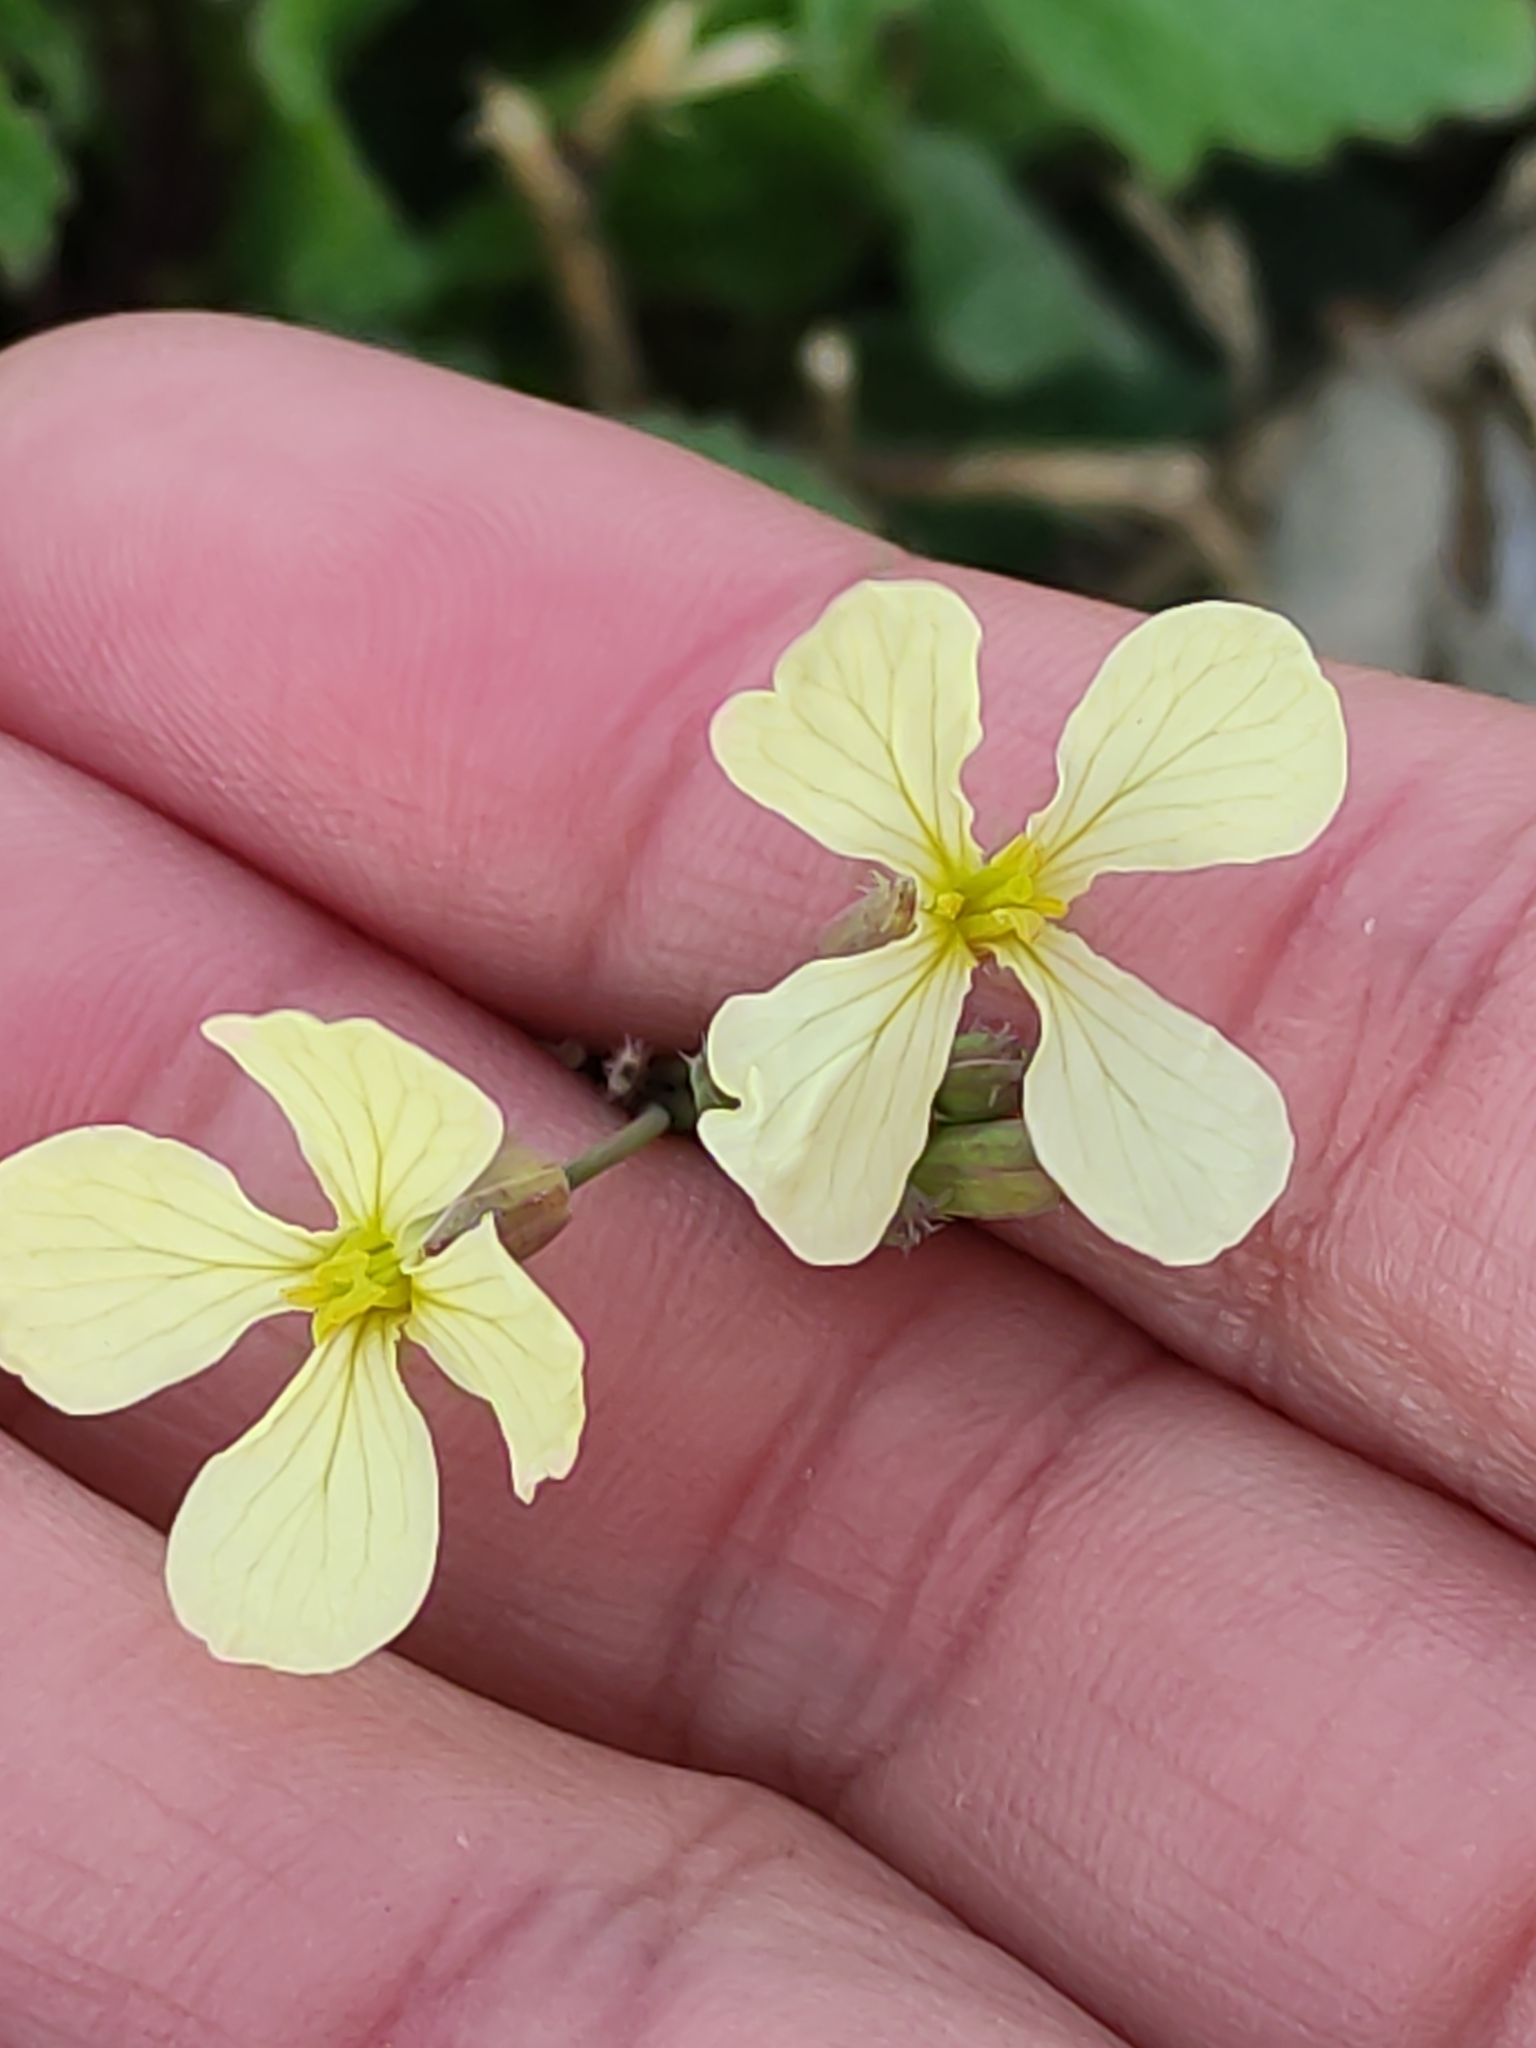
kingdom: Plantae
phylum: Tracheophyta
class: Magnoliopsida
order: Brassicales
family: Brassicaceae
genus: Raphanus
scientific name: Raphanus raphanistrum
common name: Wild radish
